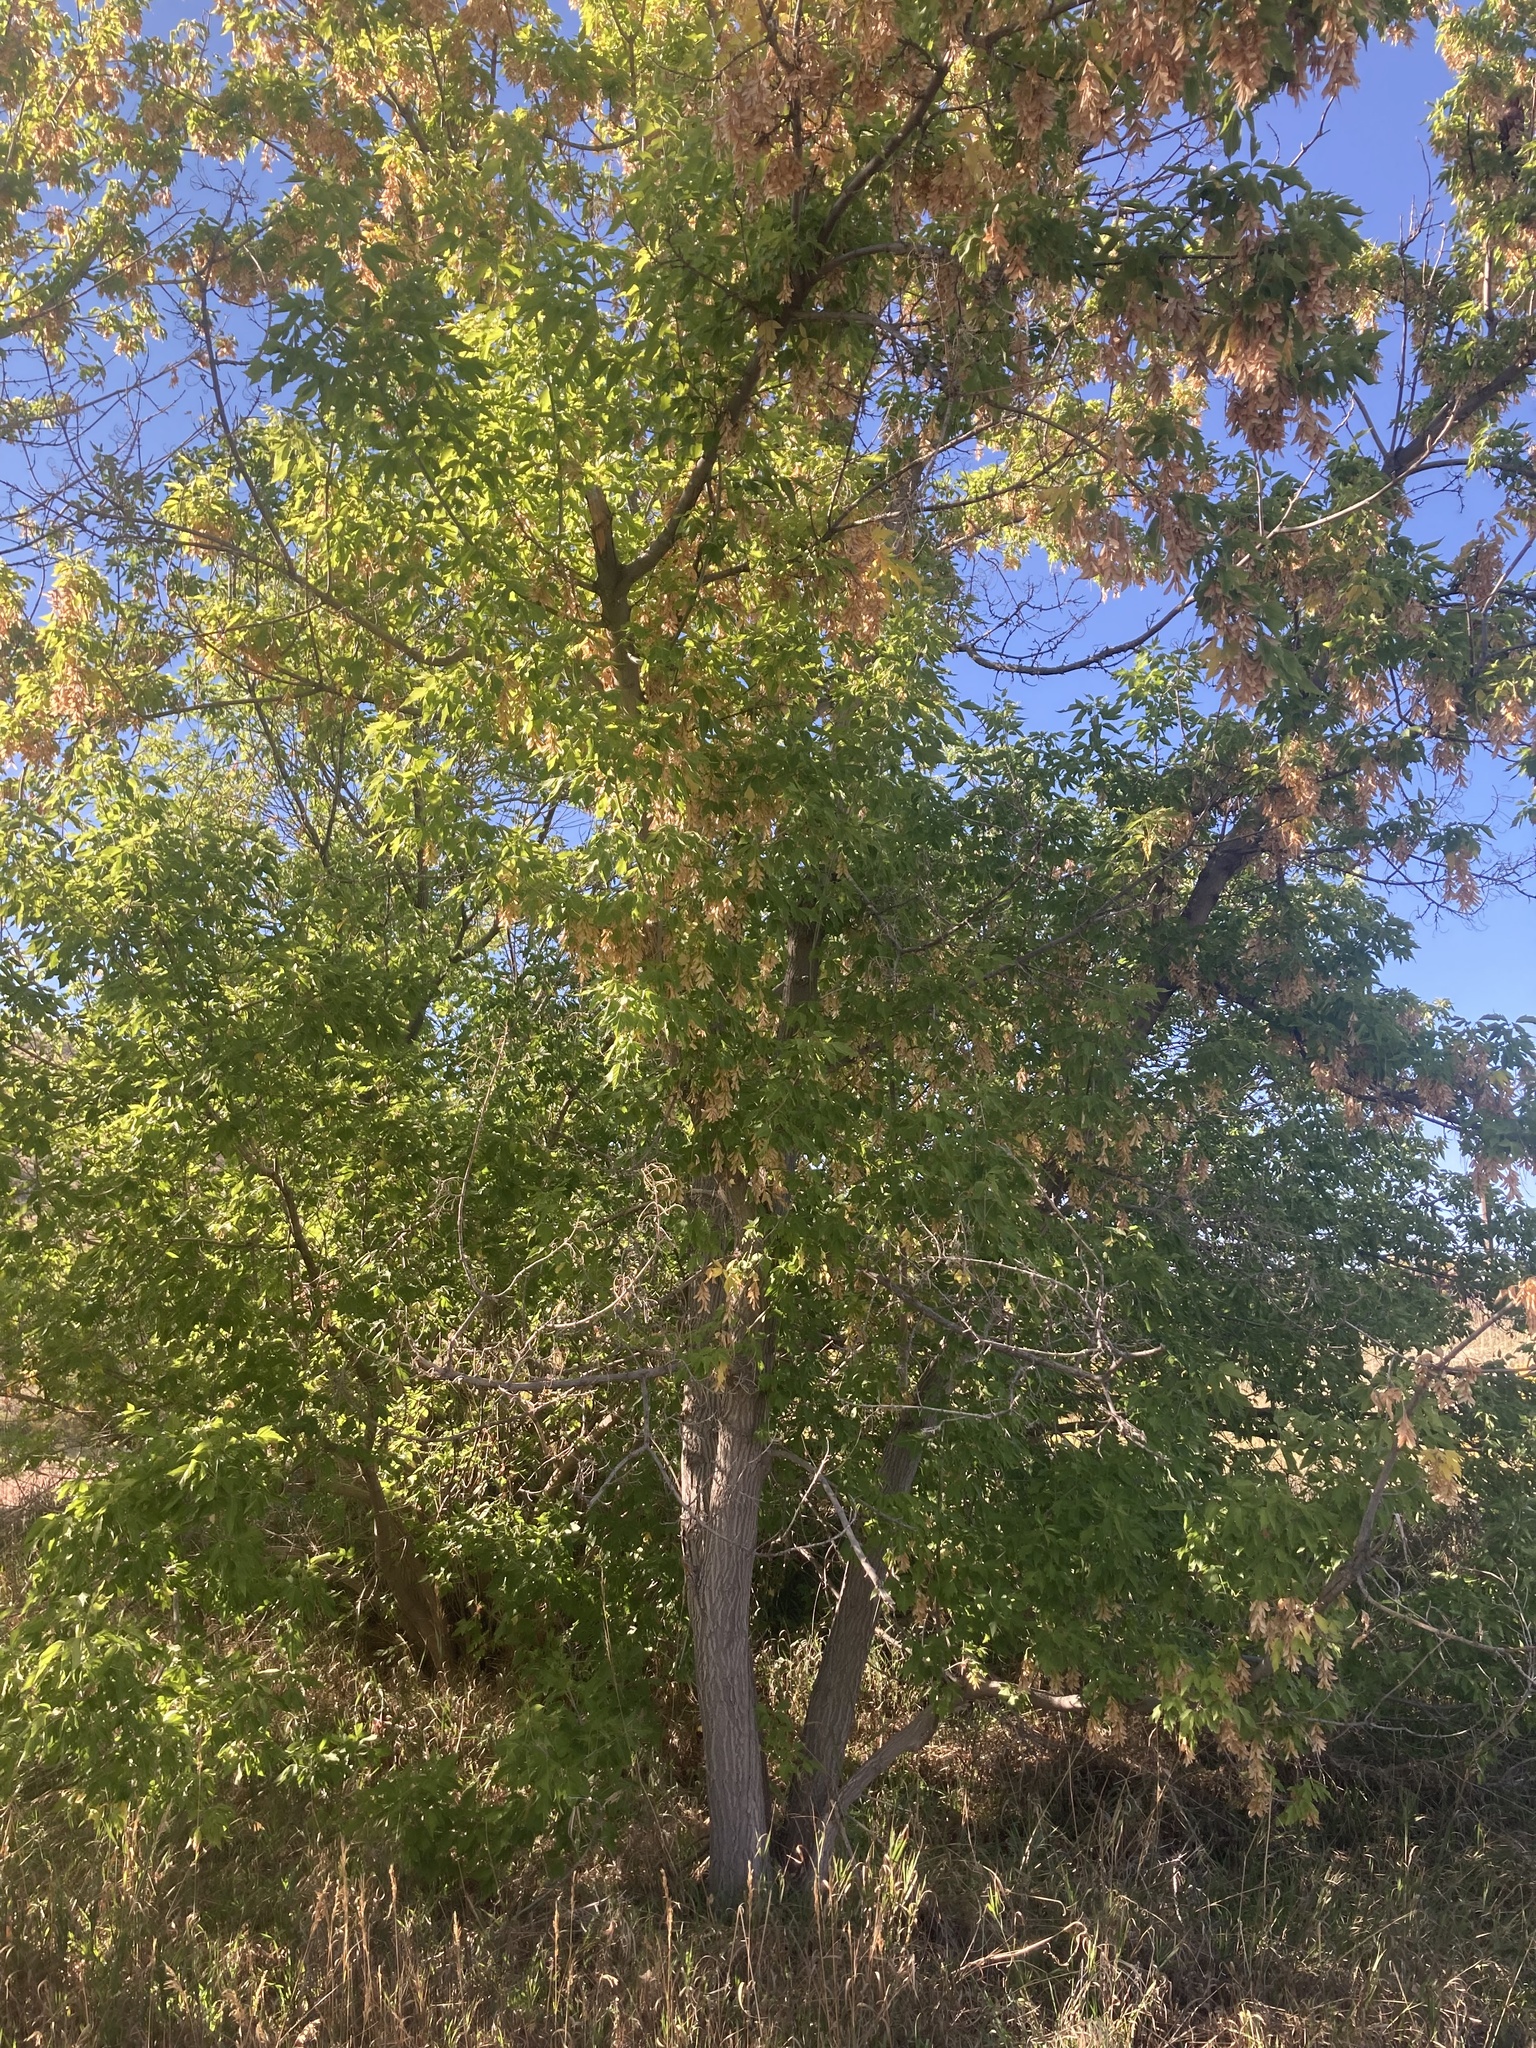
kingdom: Plantae
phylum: Tracheophyta
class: Magnoliopsida
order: Sapindales
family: Sapindaceae
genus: Acer
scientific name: Acer negundo
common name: Ashleaf maple
